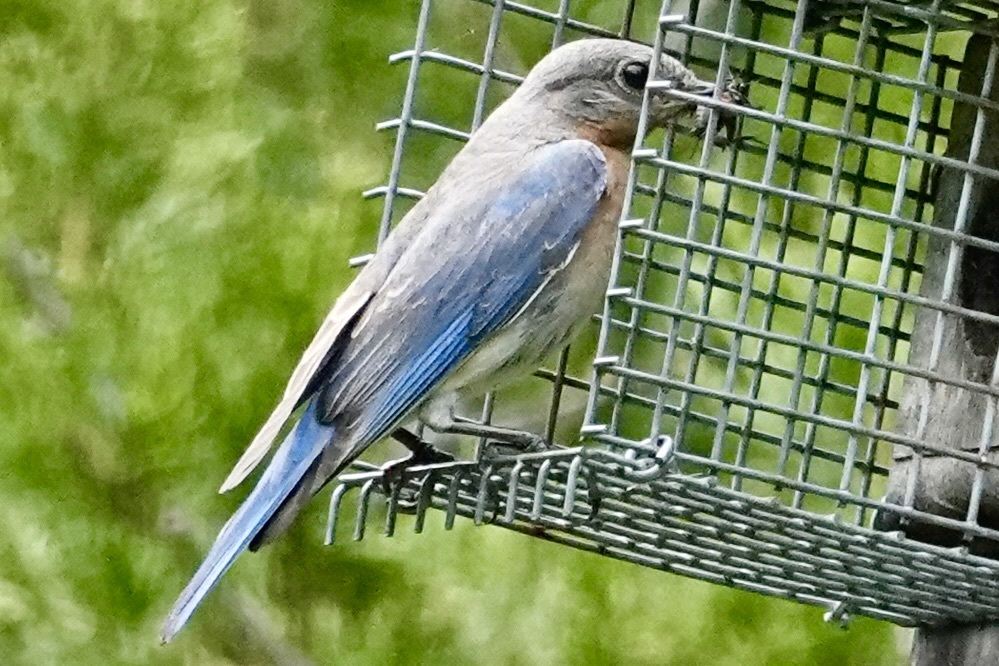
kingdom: Animalia
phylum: Chordata
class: Aves
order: Passeriformes
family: Turdidae
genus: Sialia
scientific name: Sialia sialis
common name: Eastern bluebird
